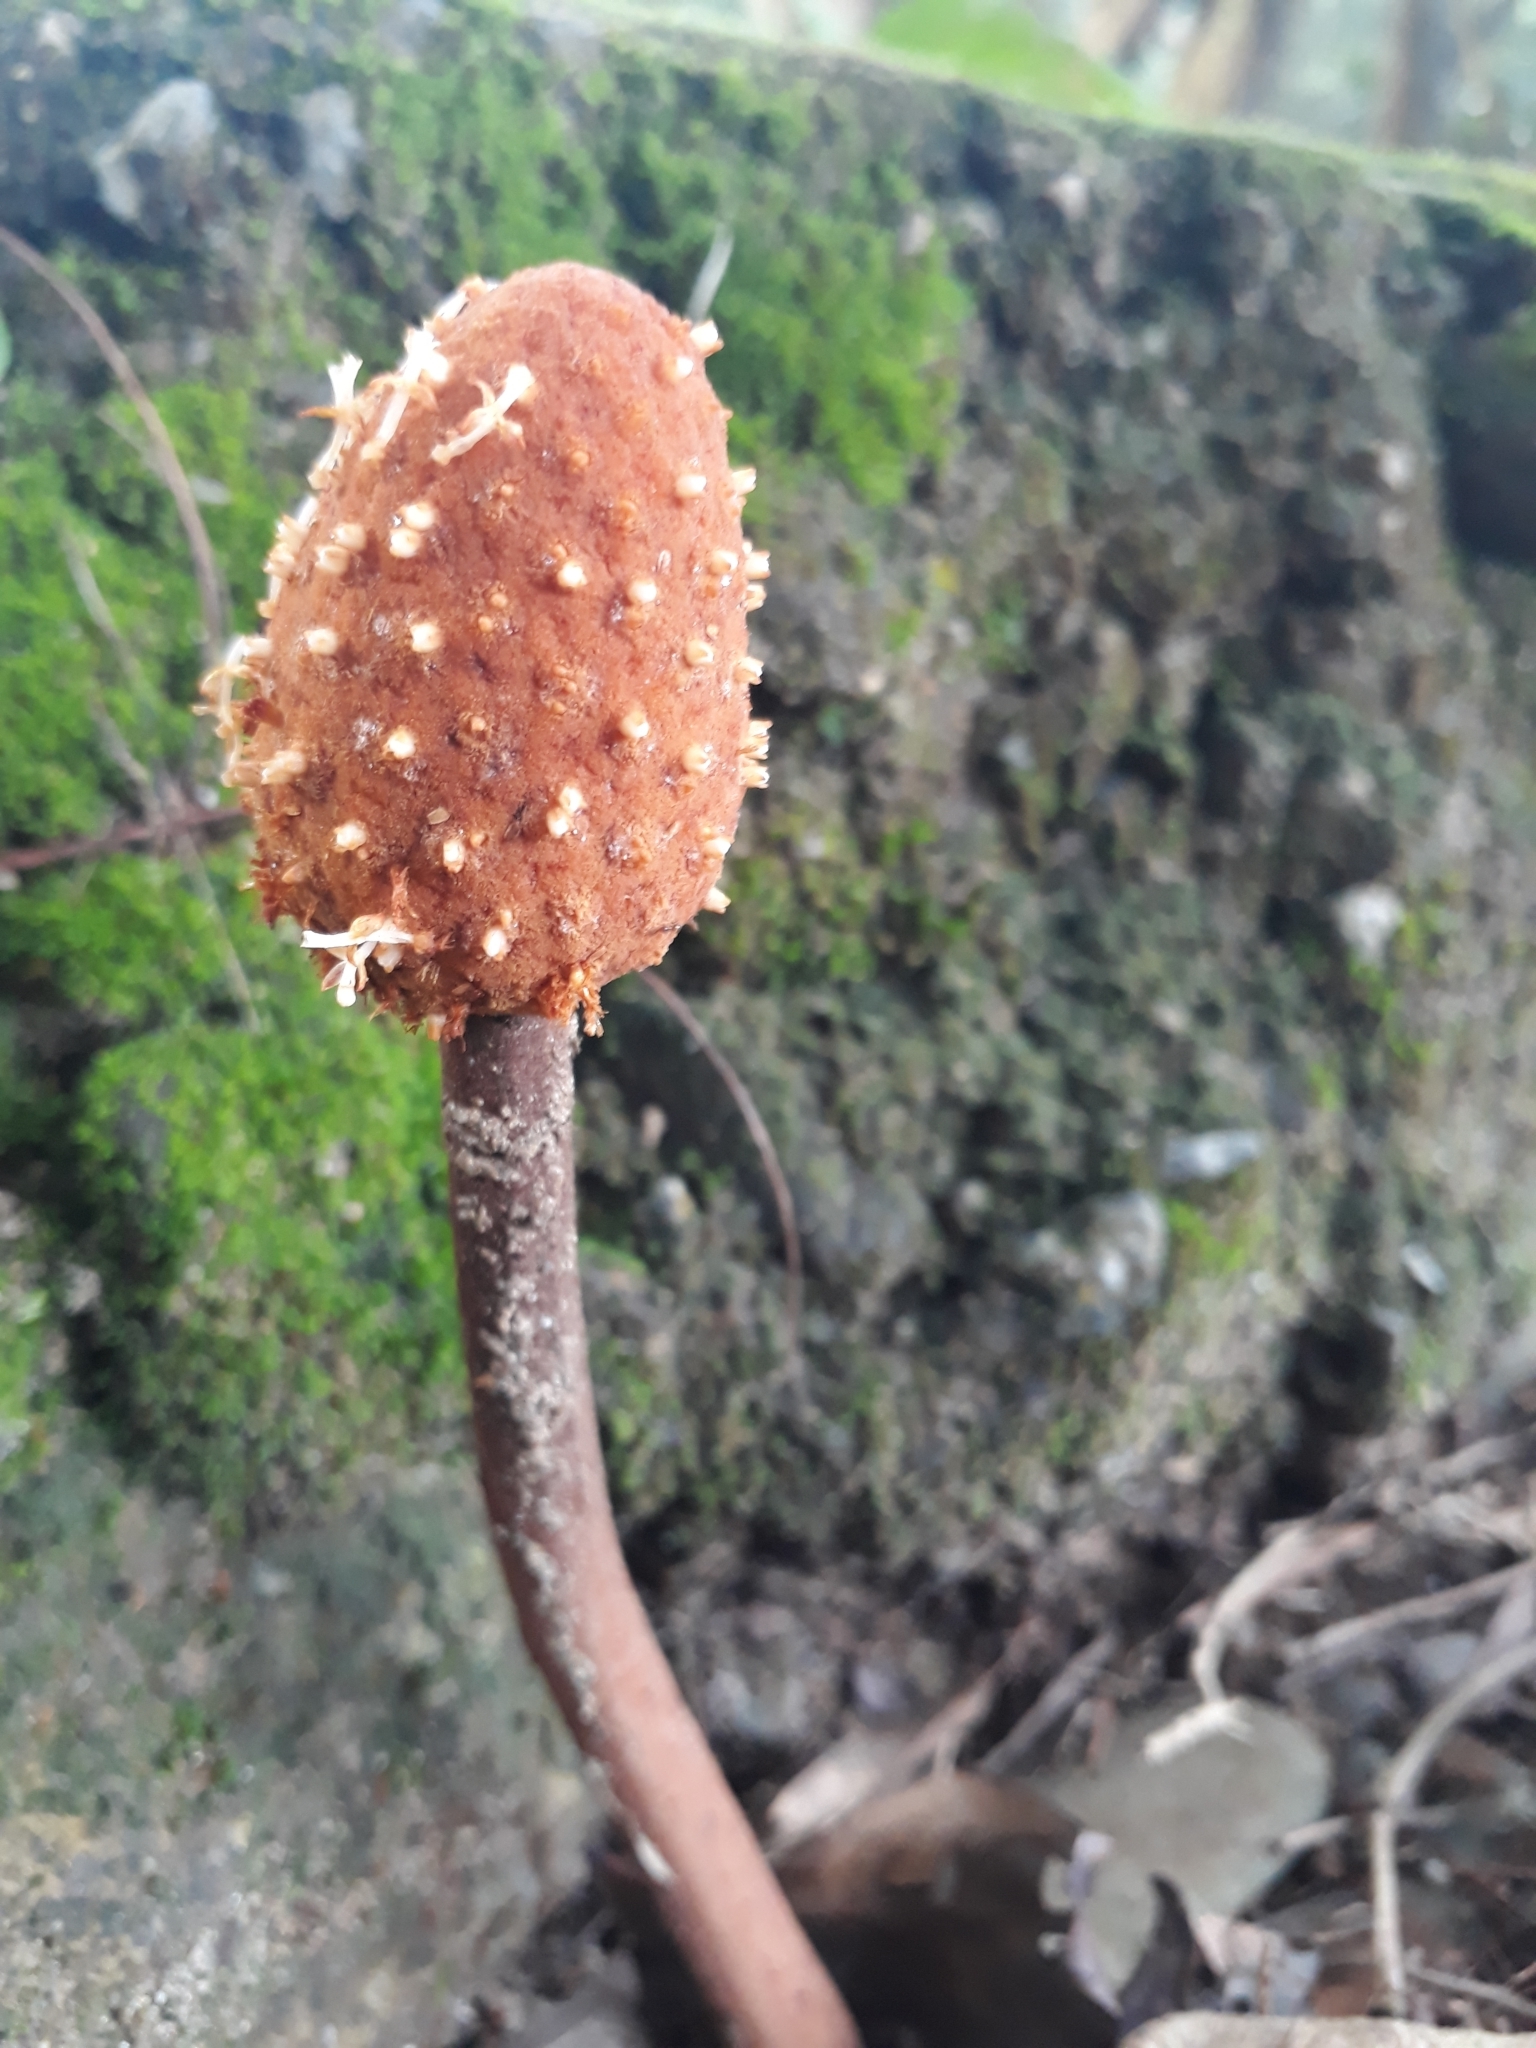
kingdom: Plantae
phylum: Tracheophyta
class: Magnoliopsida
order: Santalales
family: Balanophoraceae
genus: Helosis
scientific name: Helosis cayennensis
